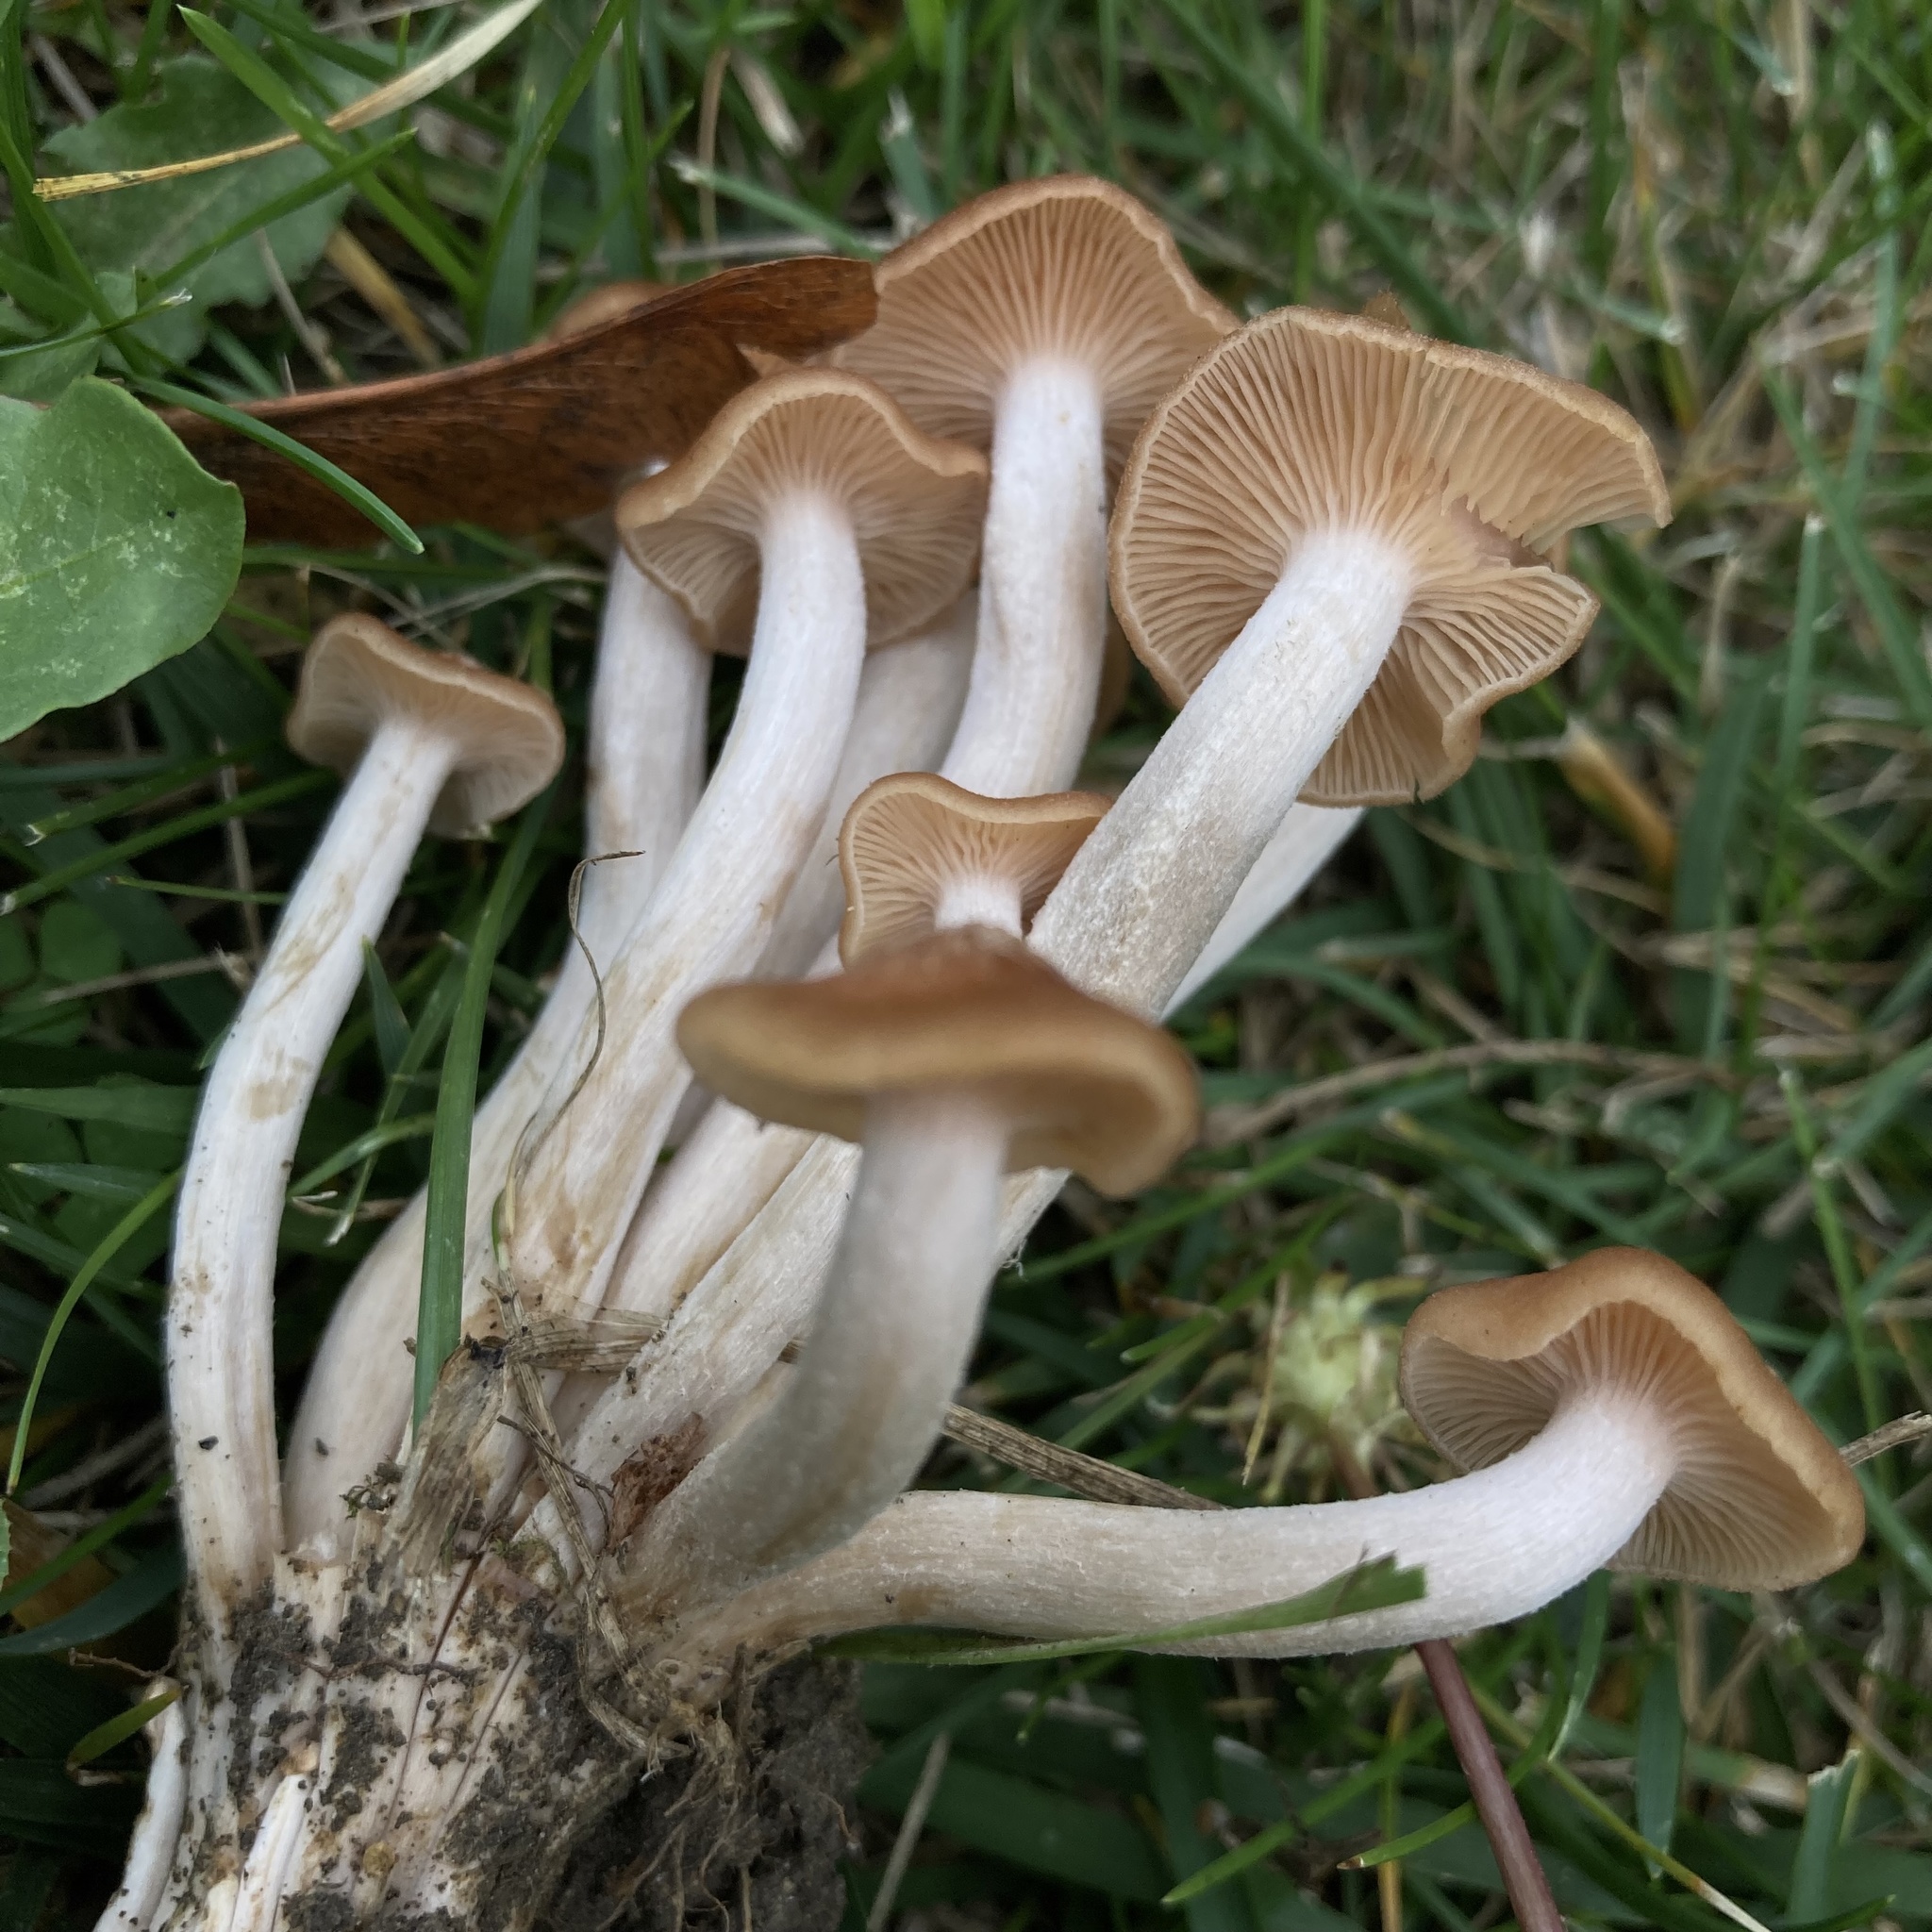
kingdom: Fungi
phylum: Basidiomycota
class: Agaricomycetes
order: Agaricales
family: Physalacriaceae
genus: Desarmillaria
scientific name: Desarmillaria caespitosa
